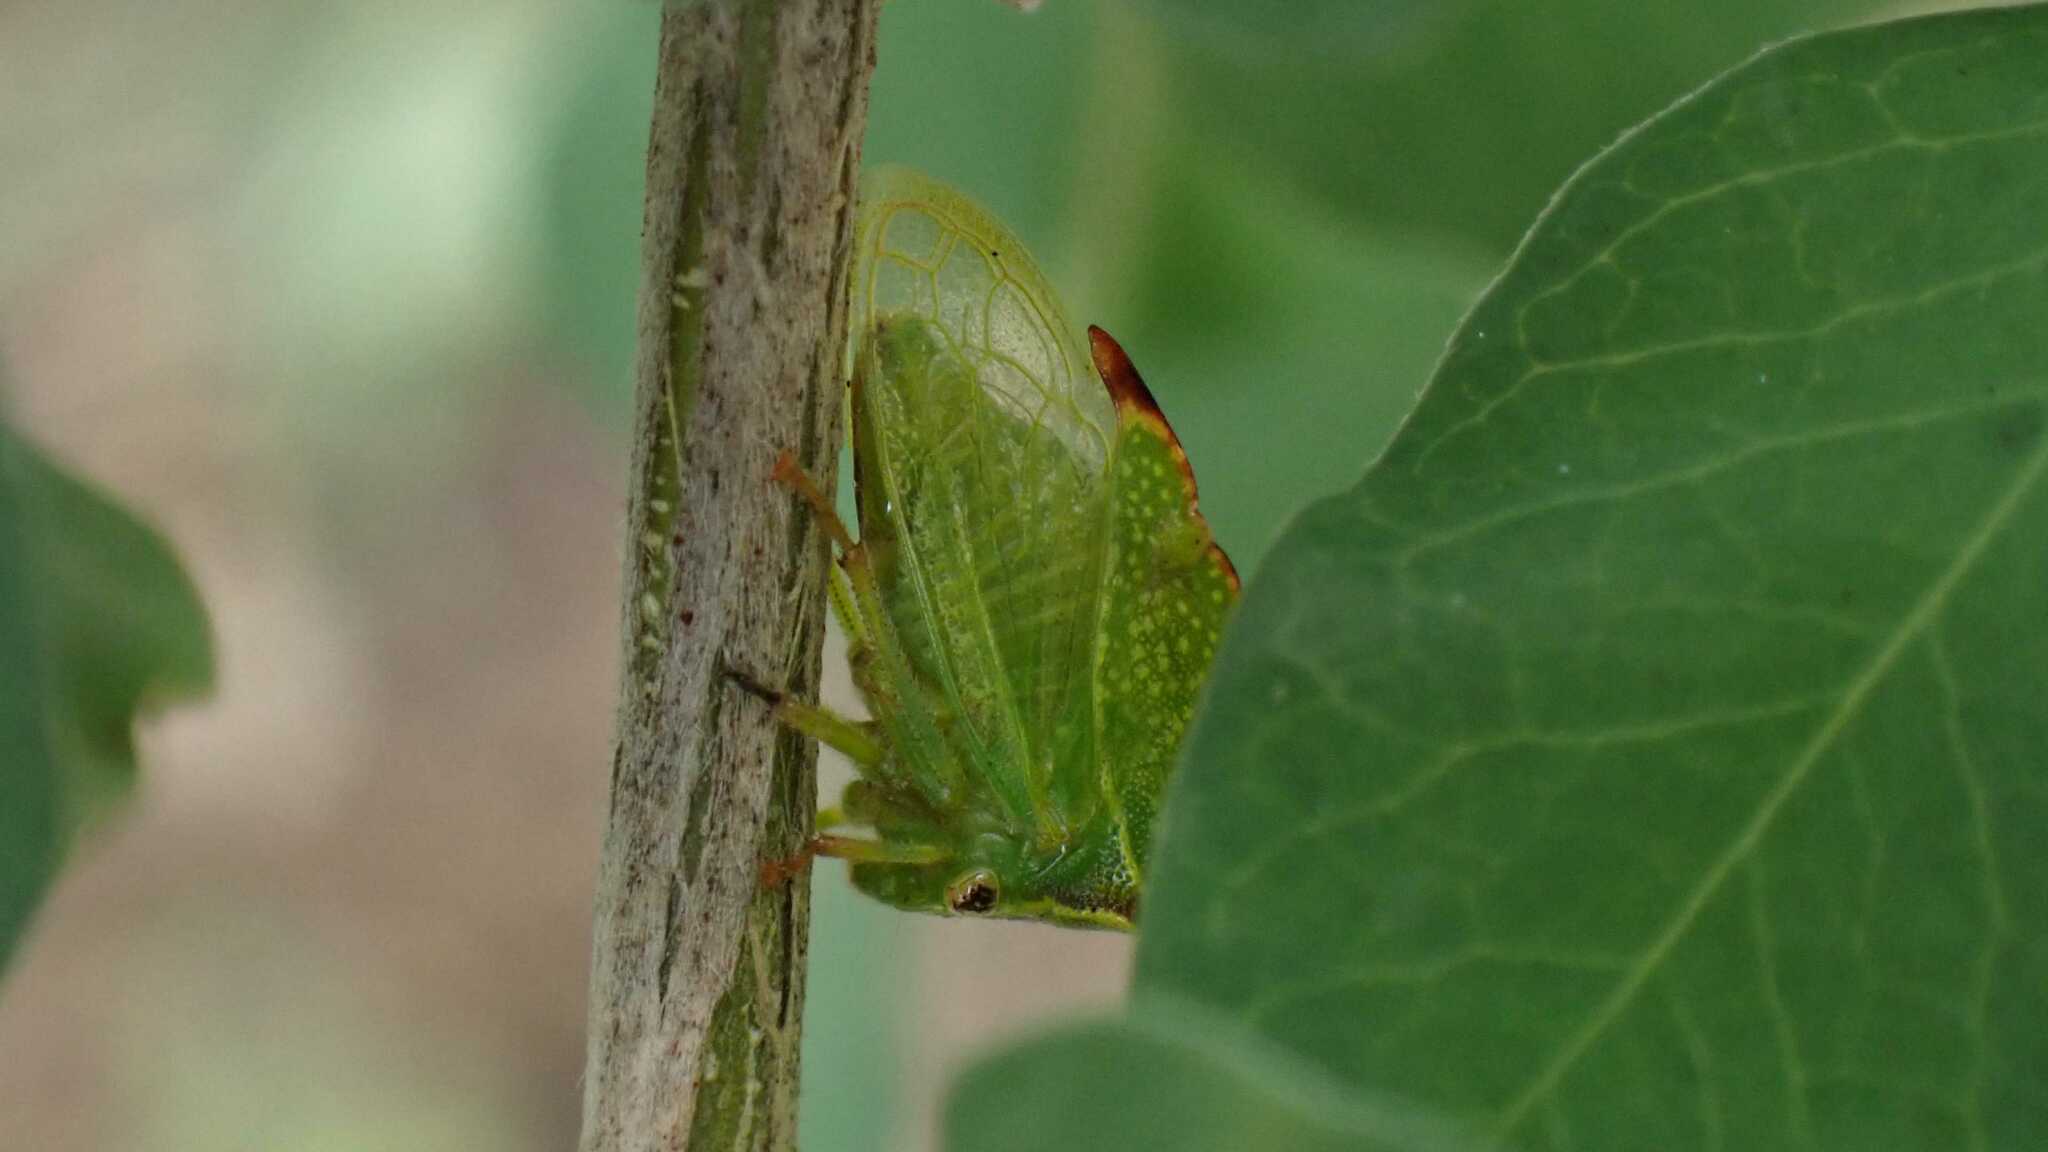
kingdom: Animalia
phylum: Arthropoda
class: Insecta
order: Hemiptera
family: Membracidae
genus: Stictocephala
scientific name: Stictocephala bisonia
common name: American buffalo treehopper
